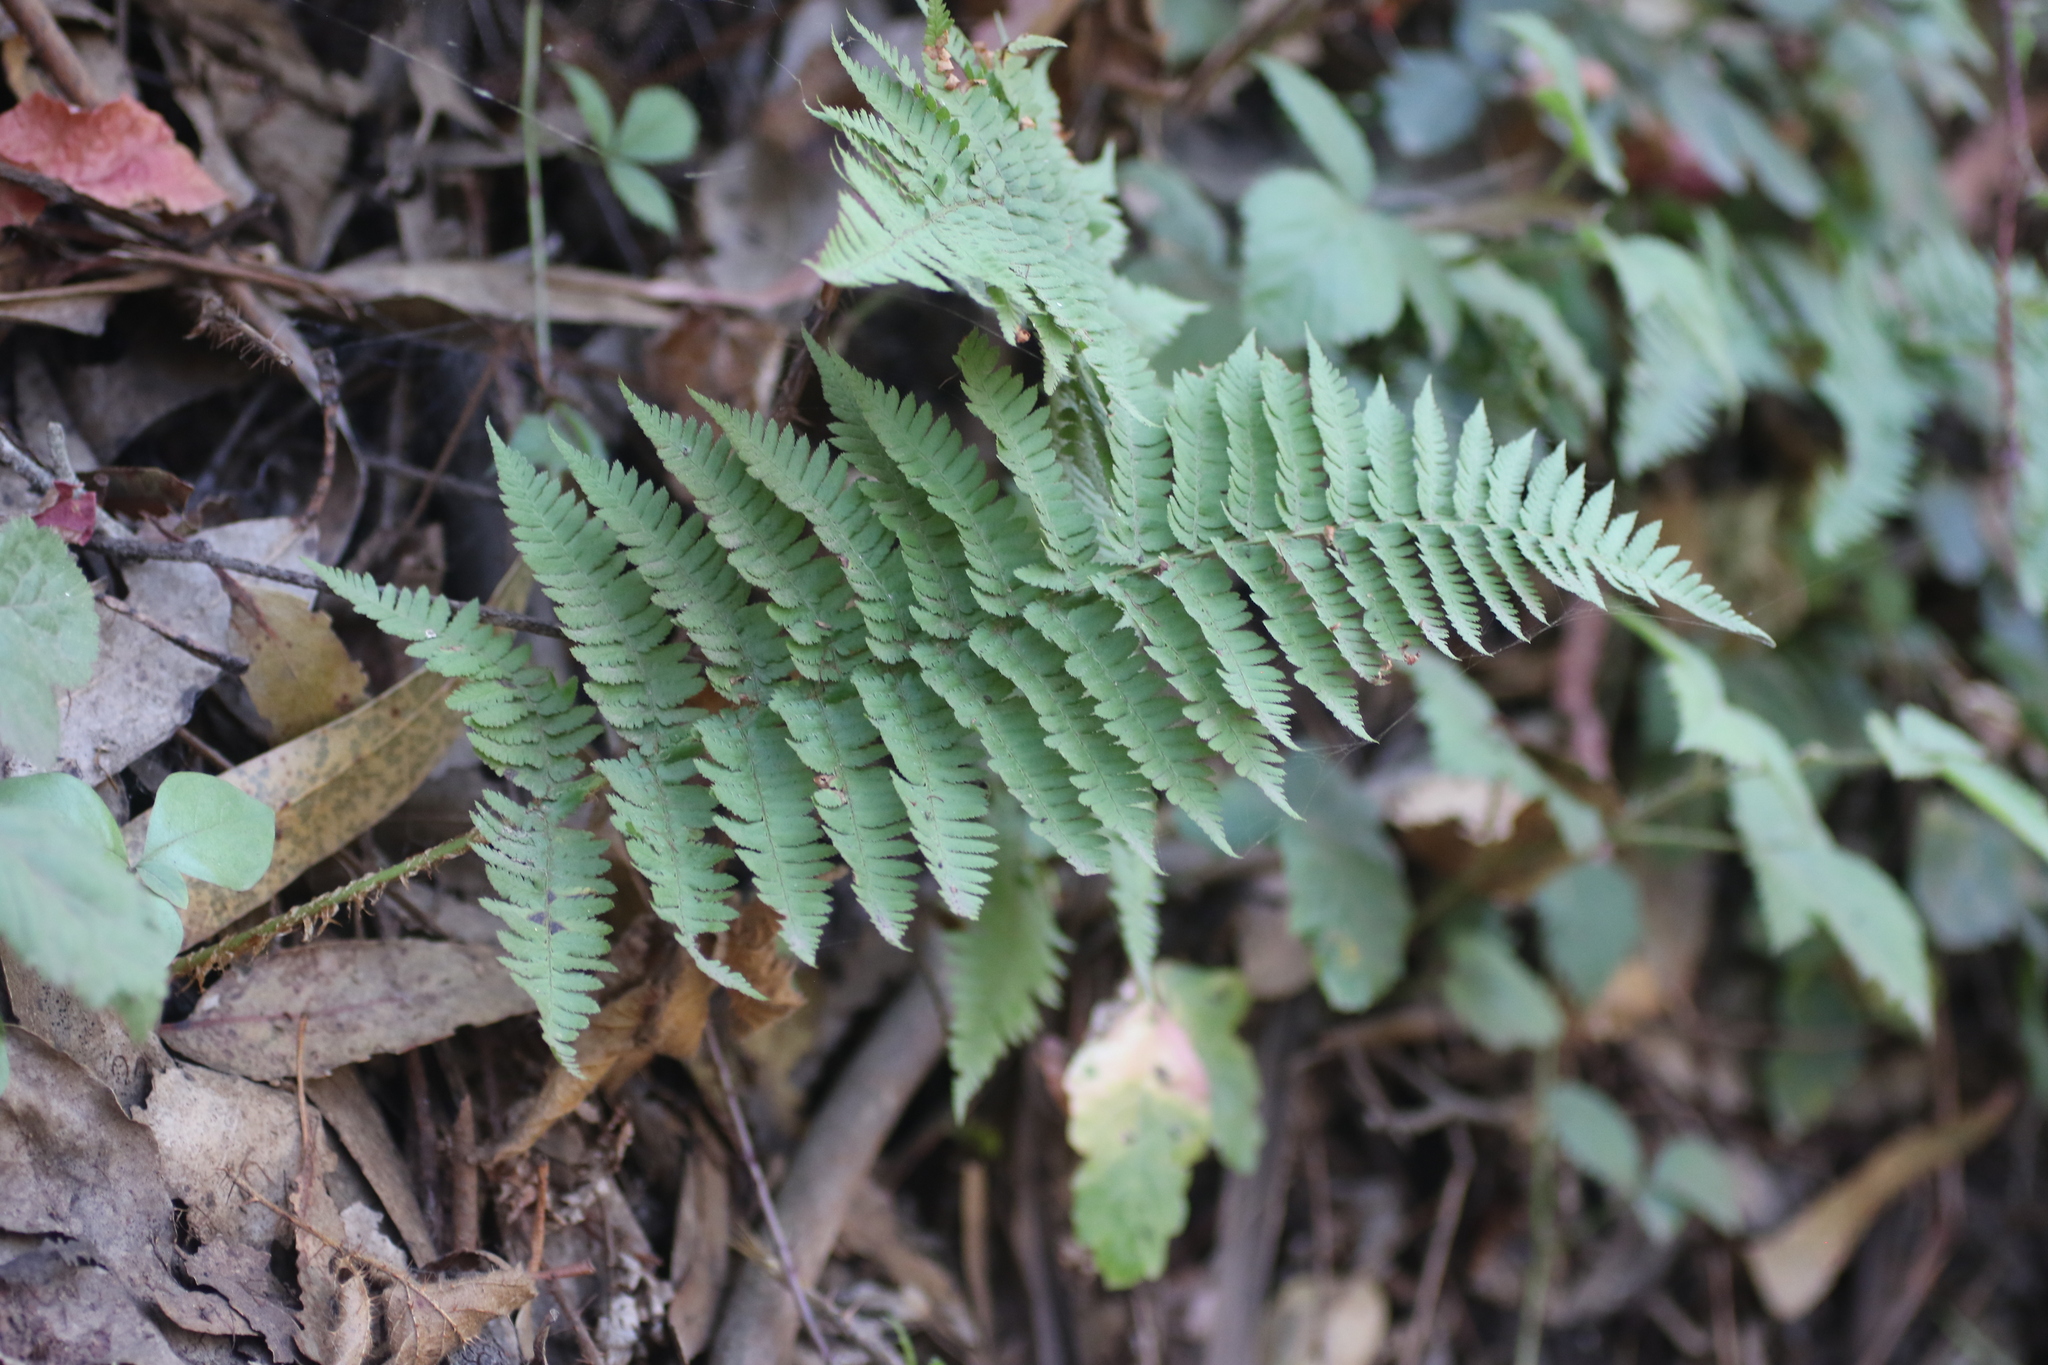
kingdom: Plantae
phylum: Tracheophyta
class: Polypodiopsida
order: Polypodiales
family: Dryopteridaceae
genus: Dryopteris
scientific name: Dryopteris arguta
